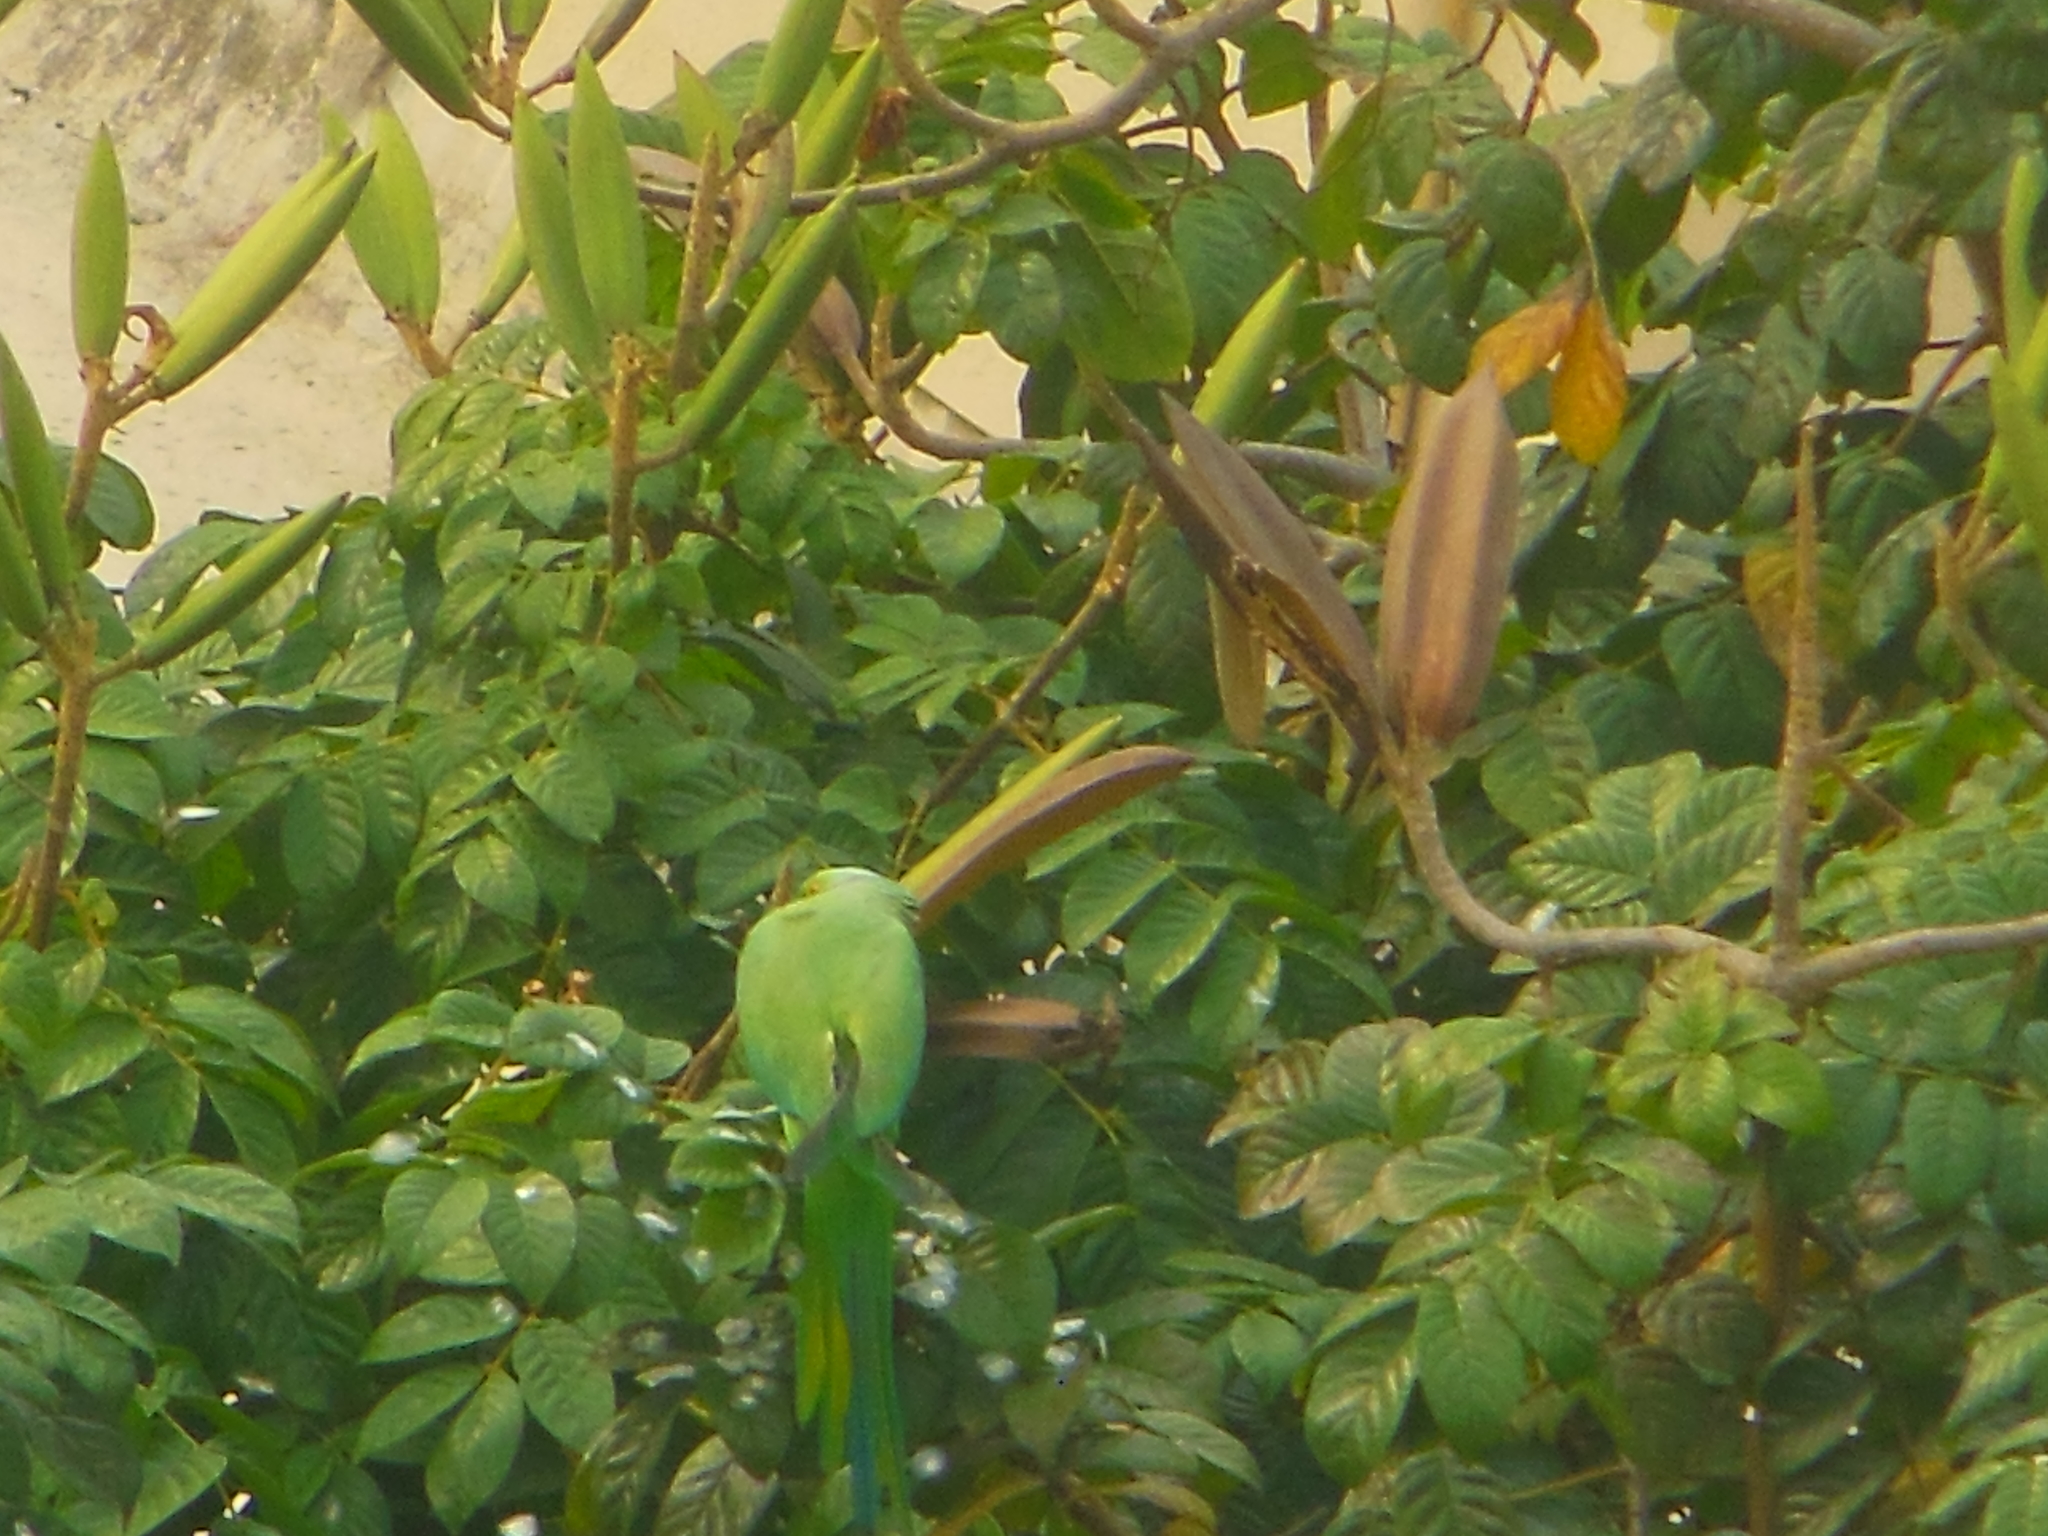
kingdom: Animalia
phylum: Chordata
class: Aves
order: Psittaciformes
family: Psittacidae
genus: Psittacula
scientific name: Psittacula krameri
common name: Rose-ringed parakeet
